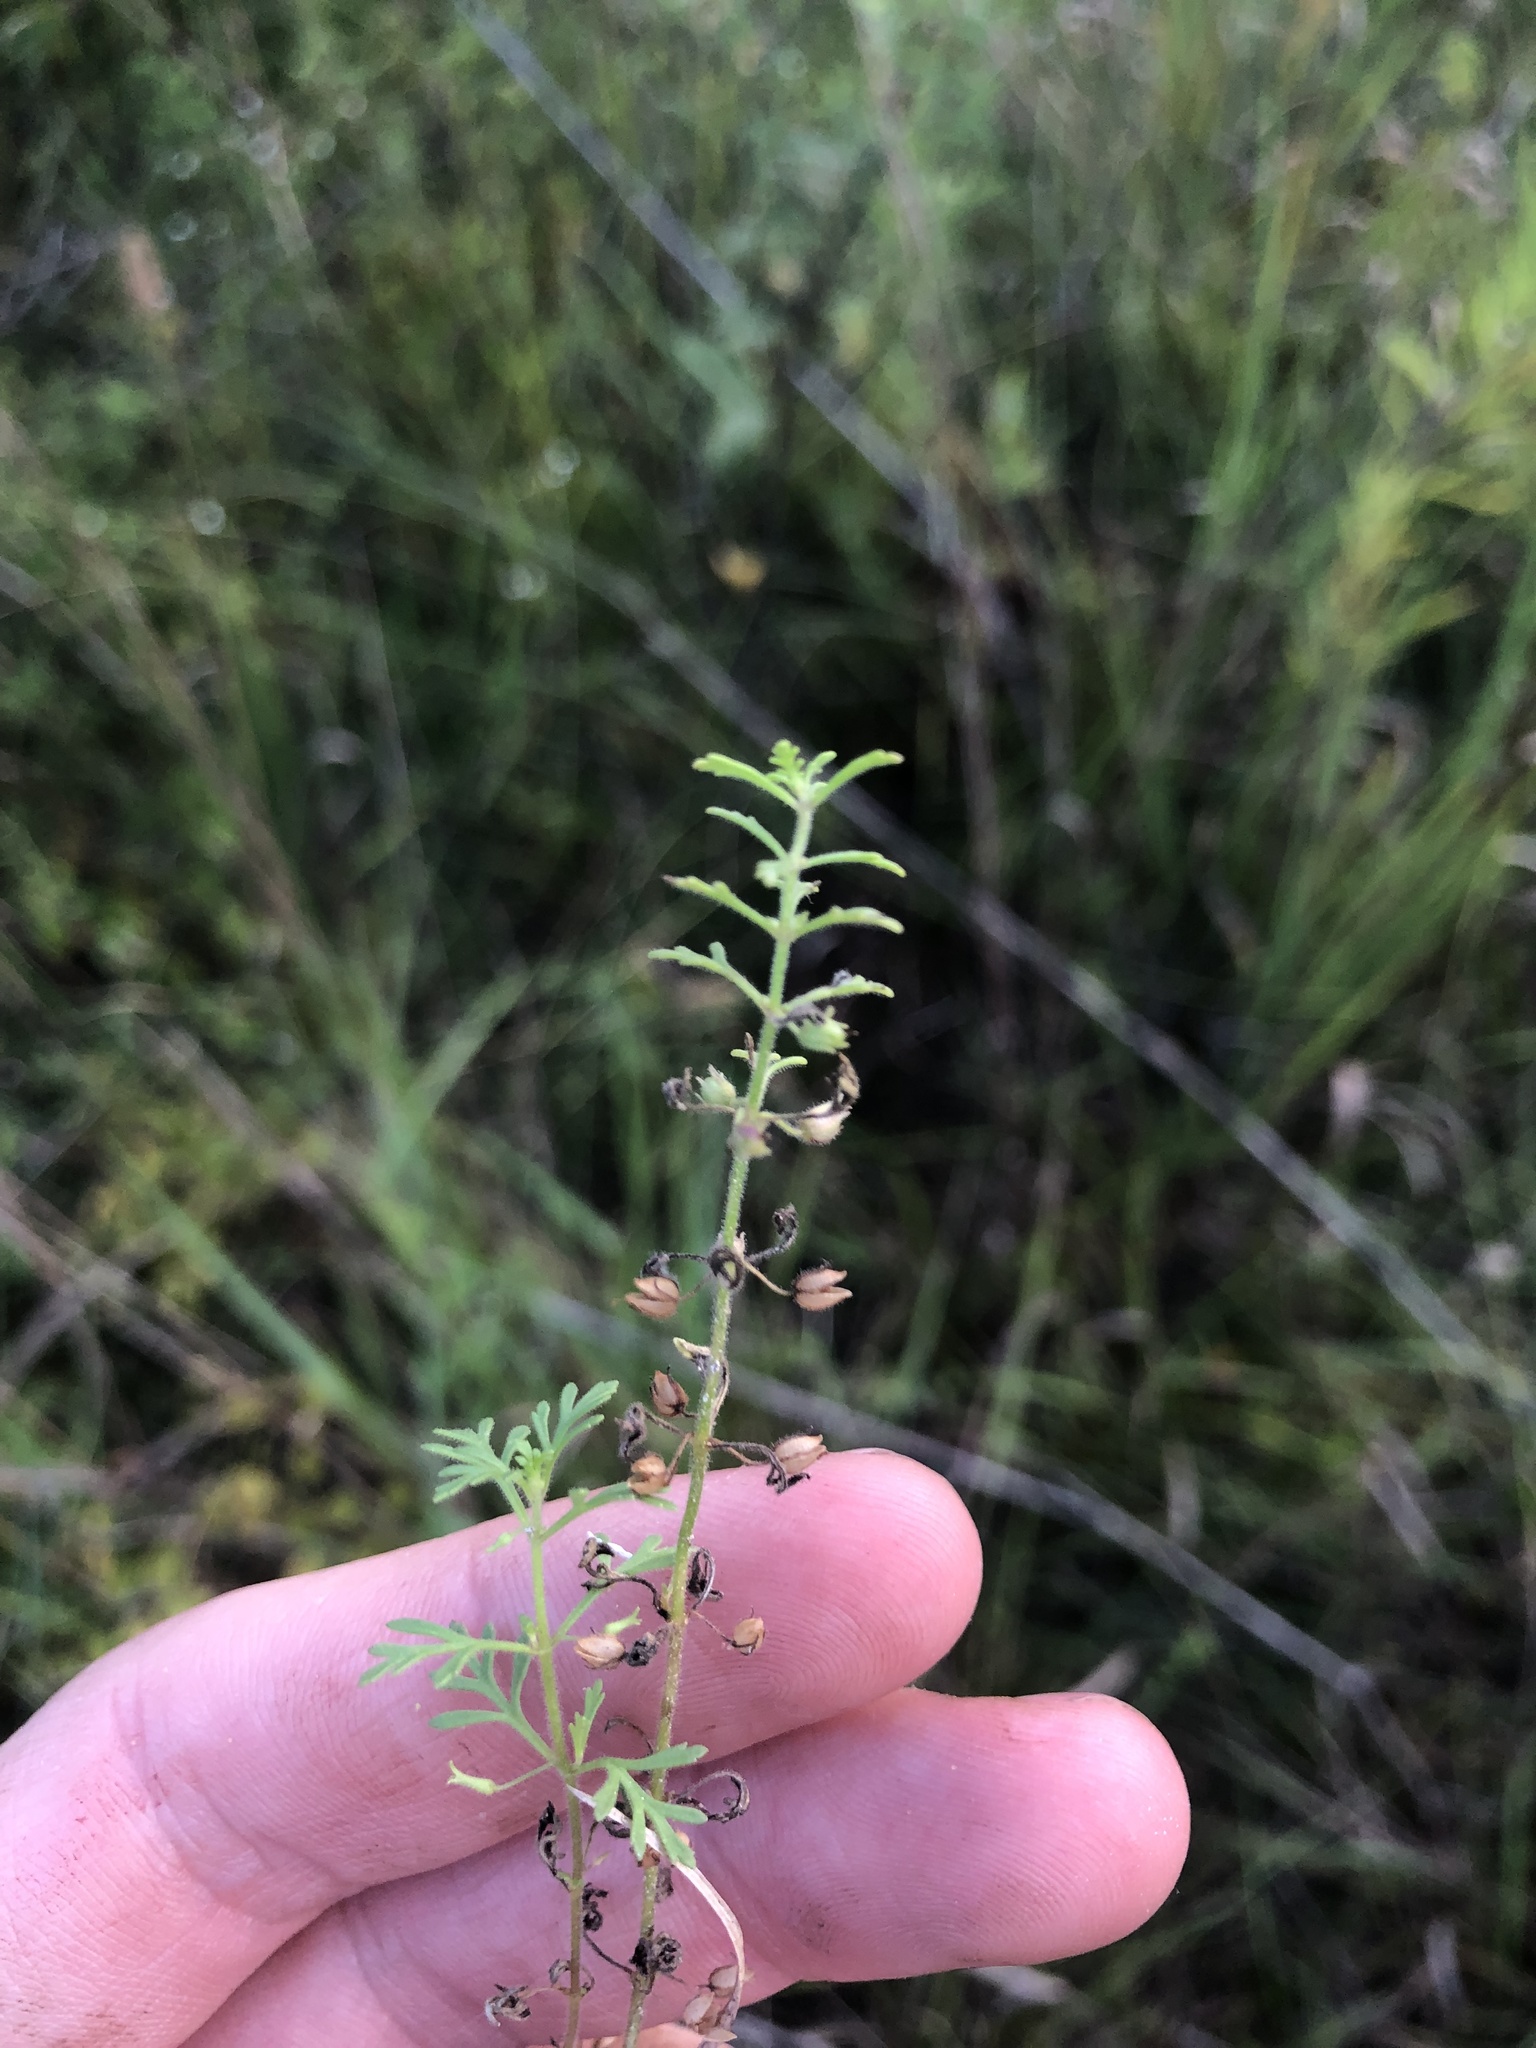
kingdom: Plantae
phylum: Tracheophyta
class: Magnoliopsida
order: Lamiales
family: Plantaginaceae
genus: Leucospora
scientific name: Leucospora multifida
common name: Narrow-leaf paleseed
